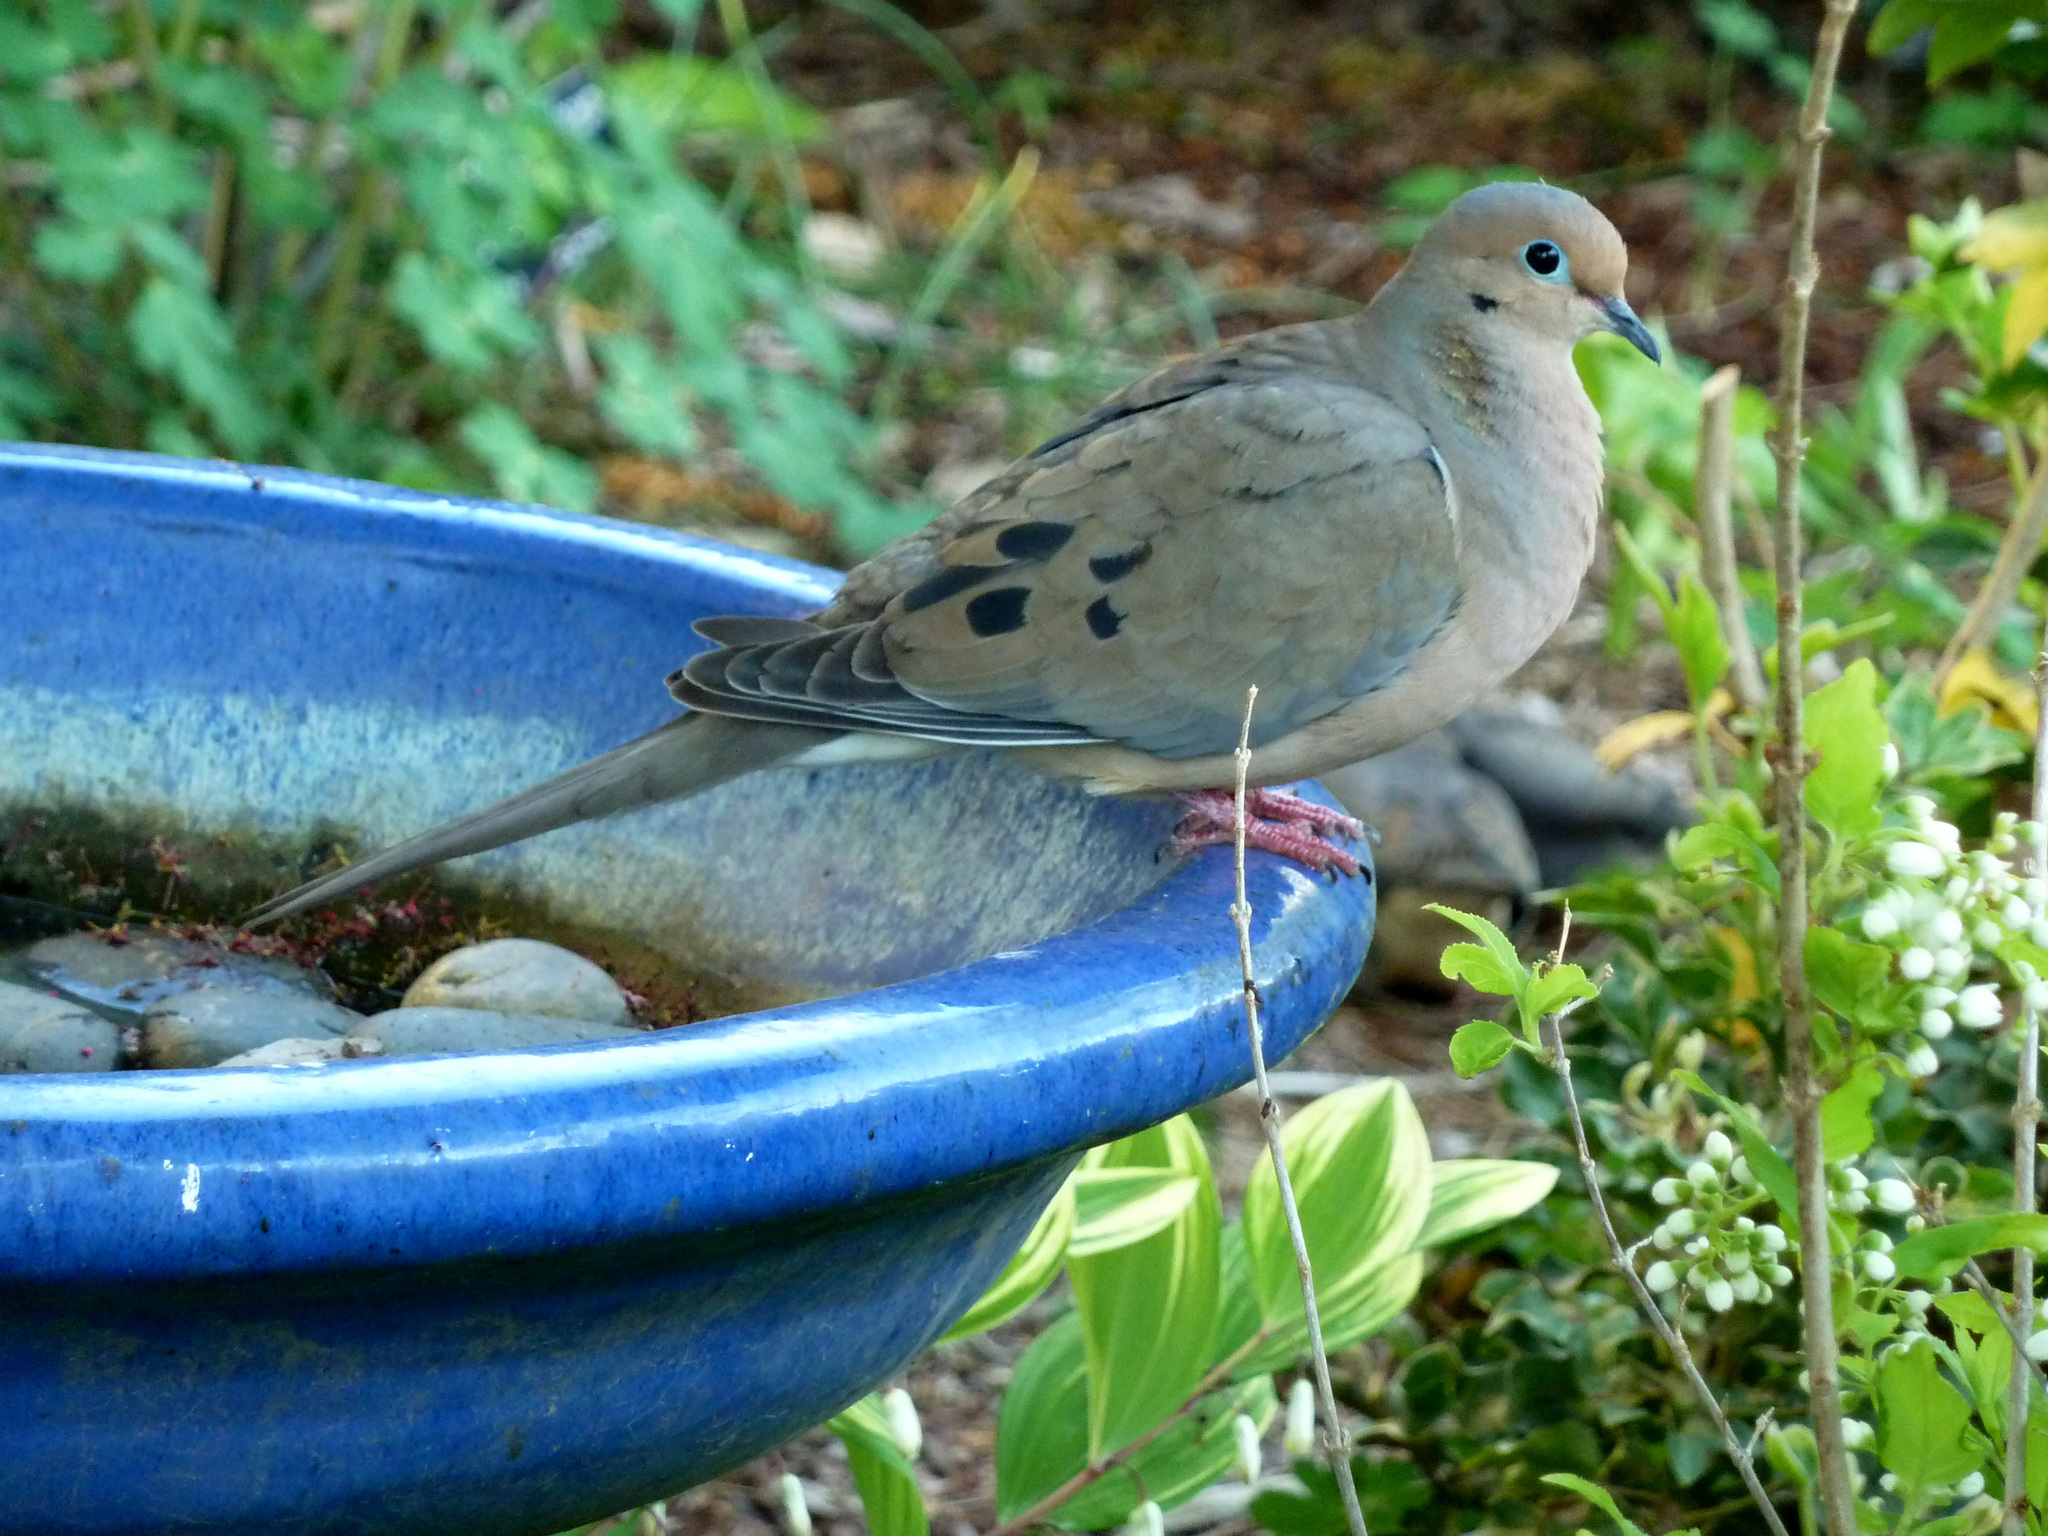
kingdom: Animalia
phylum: Chordata
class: Aves
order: Columbiformes
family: Columbidae
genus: Zenaida
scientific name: Zenaida macroura
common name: Mourning dove
